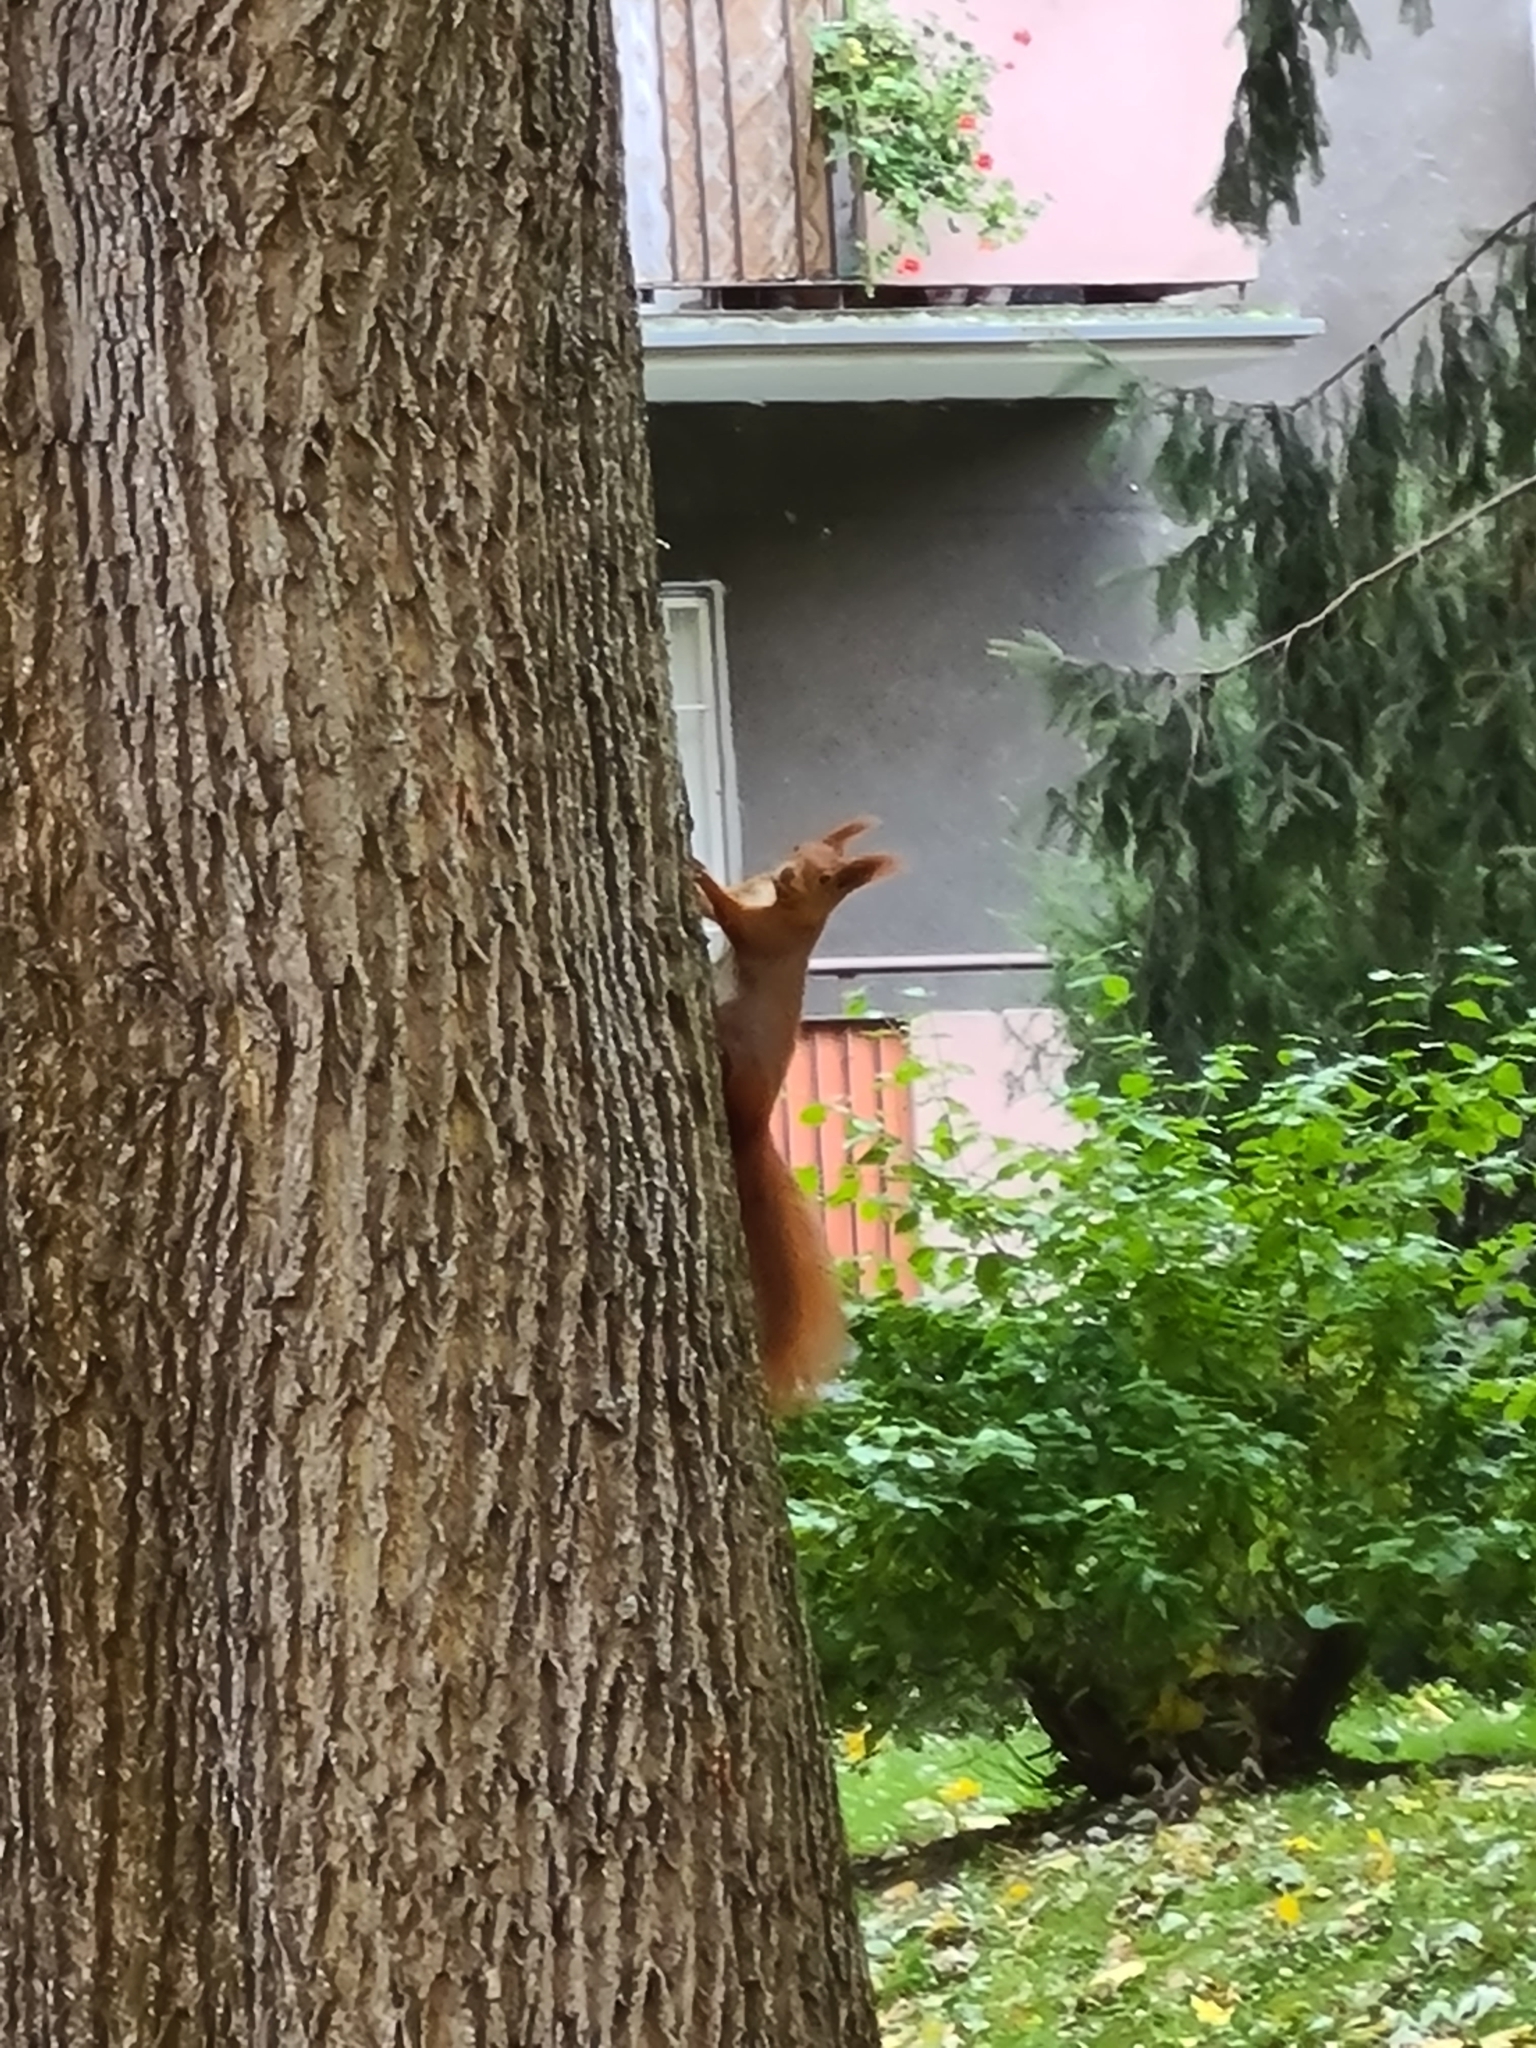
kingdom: Animalia
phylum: Chordata
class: Mammalia
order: Rodentia
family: Sciuridae
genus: Sciurus
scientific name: Sciurus vulgaris
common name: Eurasian red squirrel
